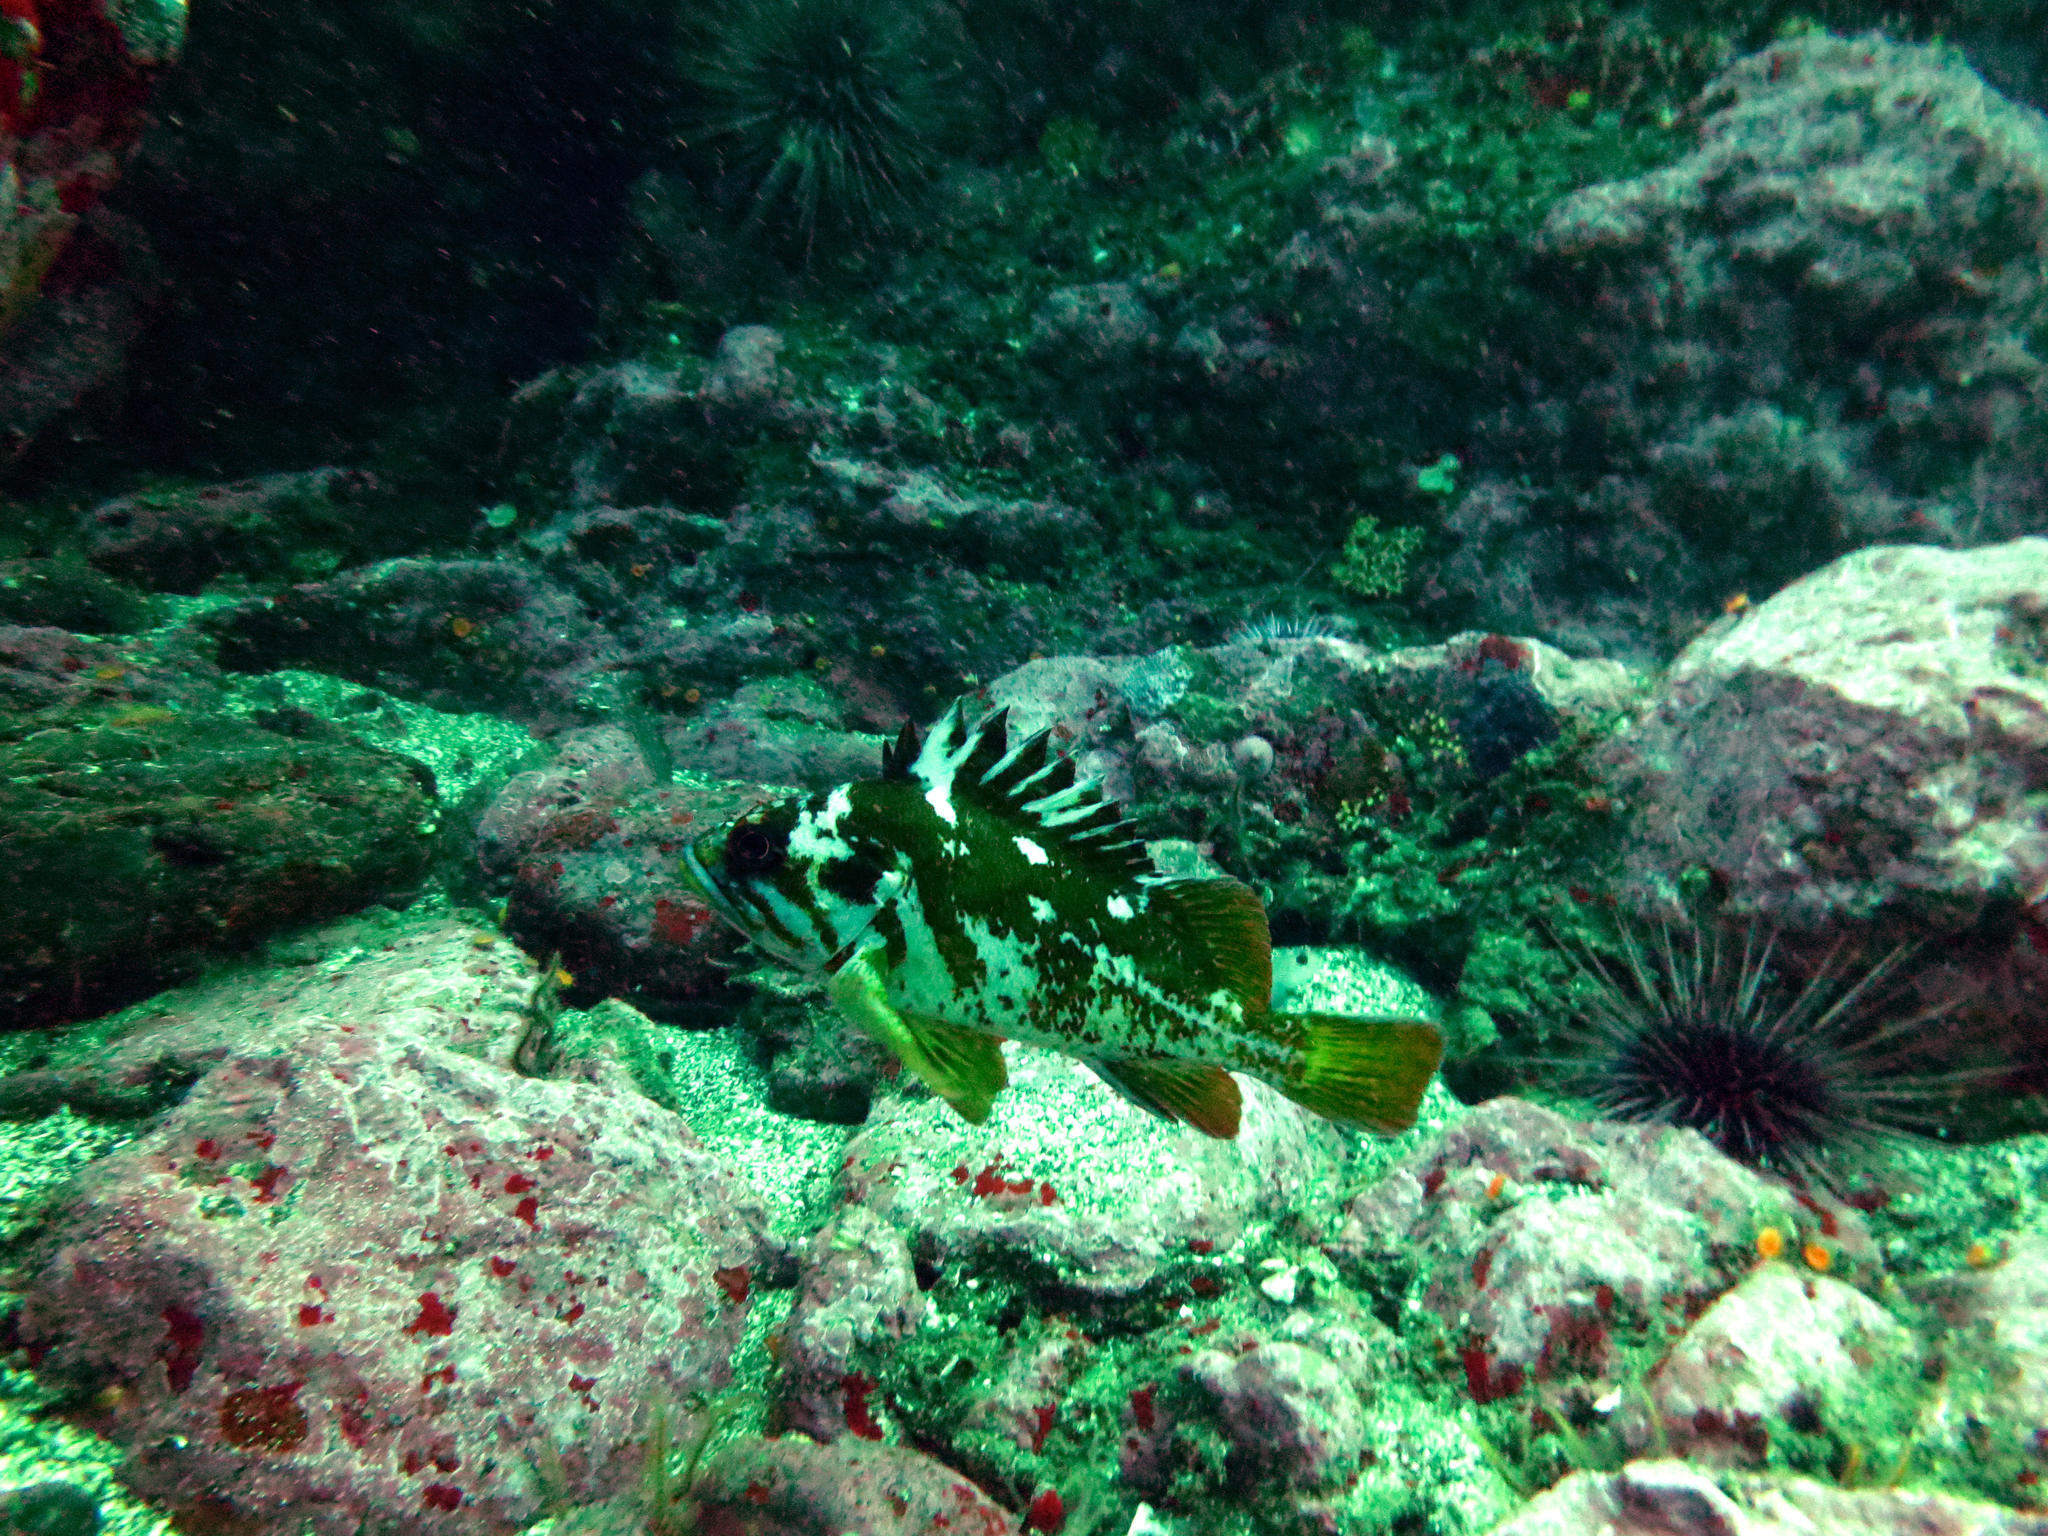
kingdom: Animalia
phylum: Chordata
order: Scorpaeniformes
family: Sebastidae
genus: Sebastes
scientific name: Sebastes carnatus
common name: Gopher rockfish
